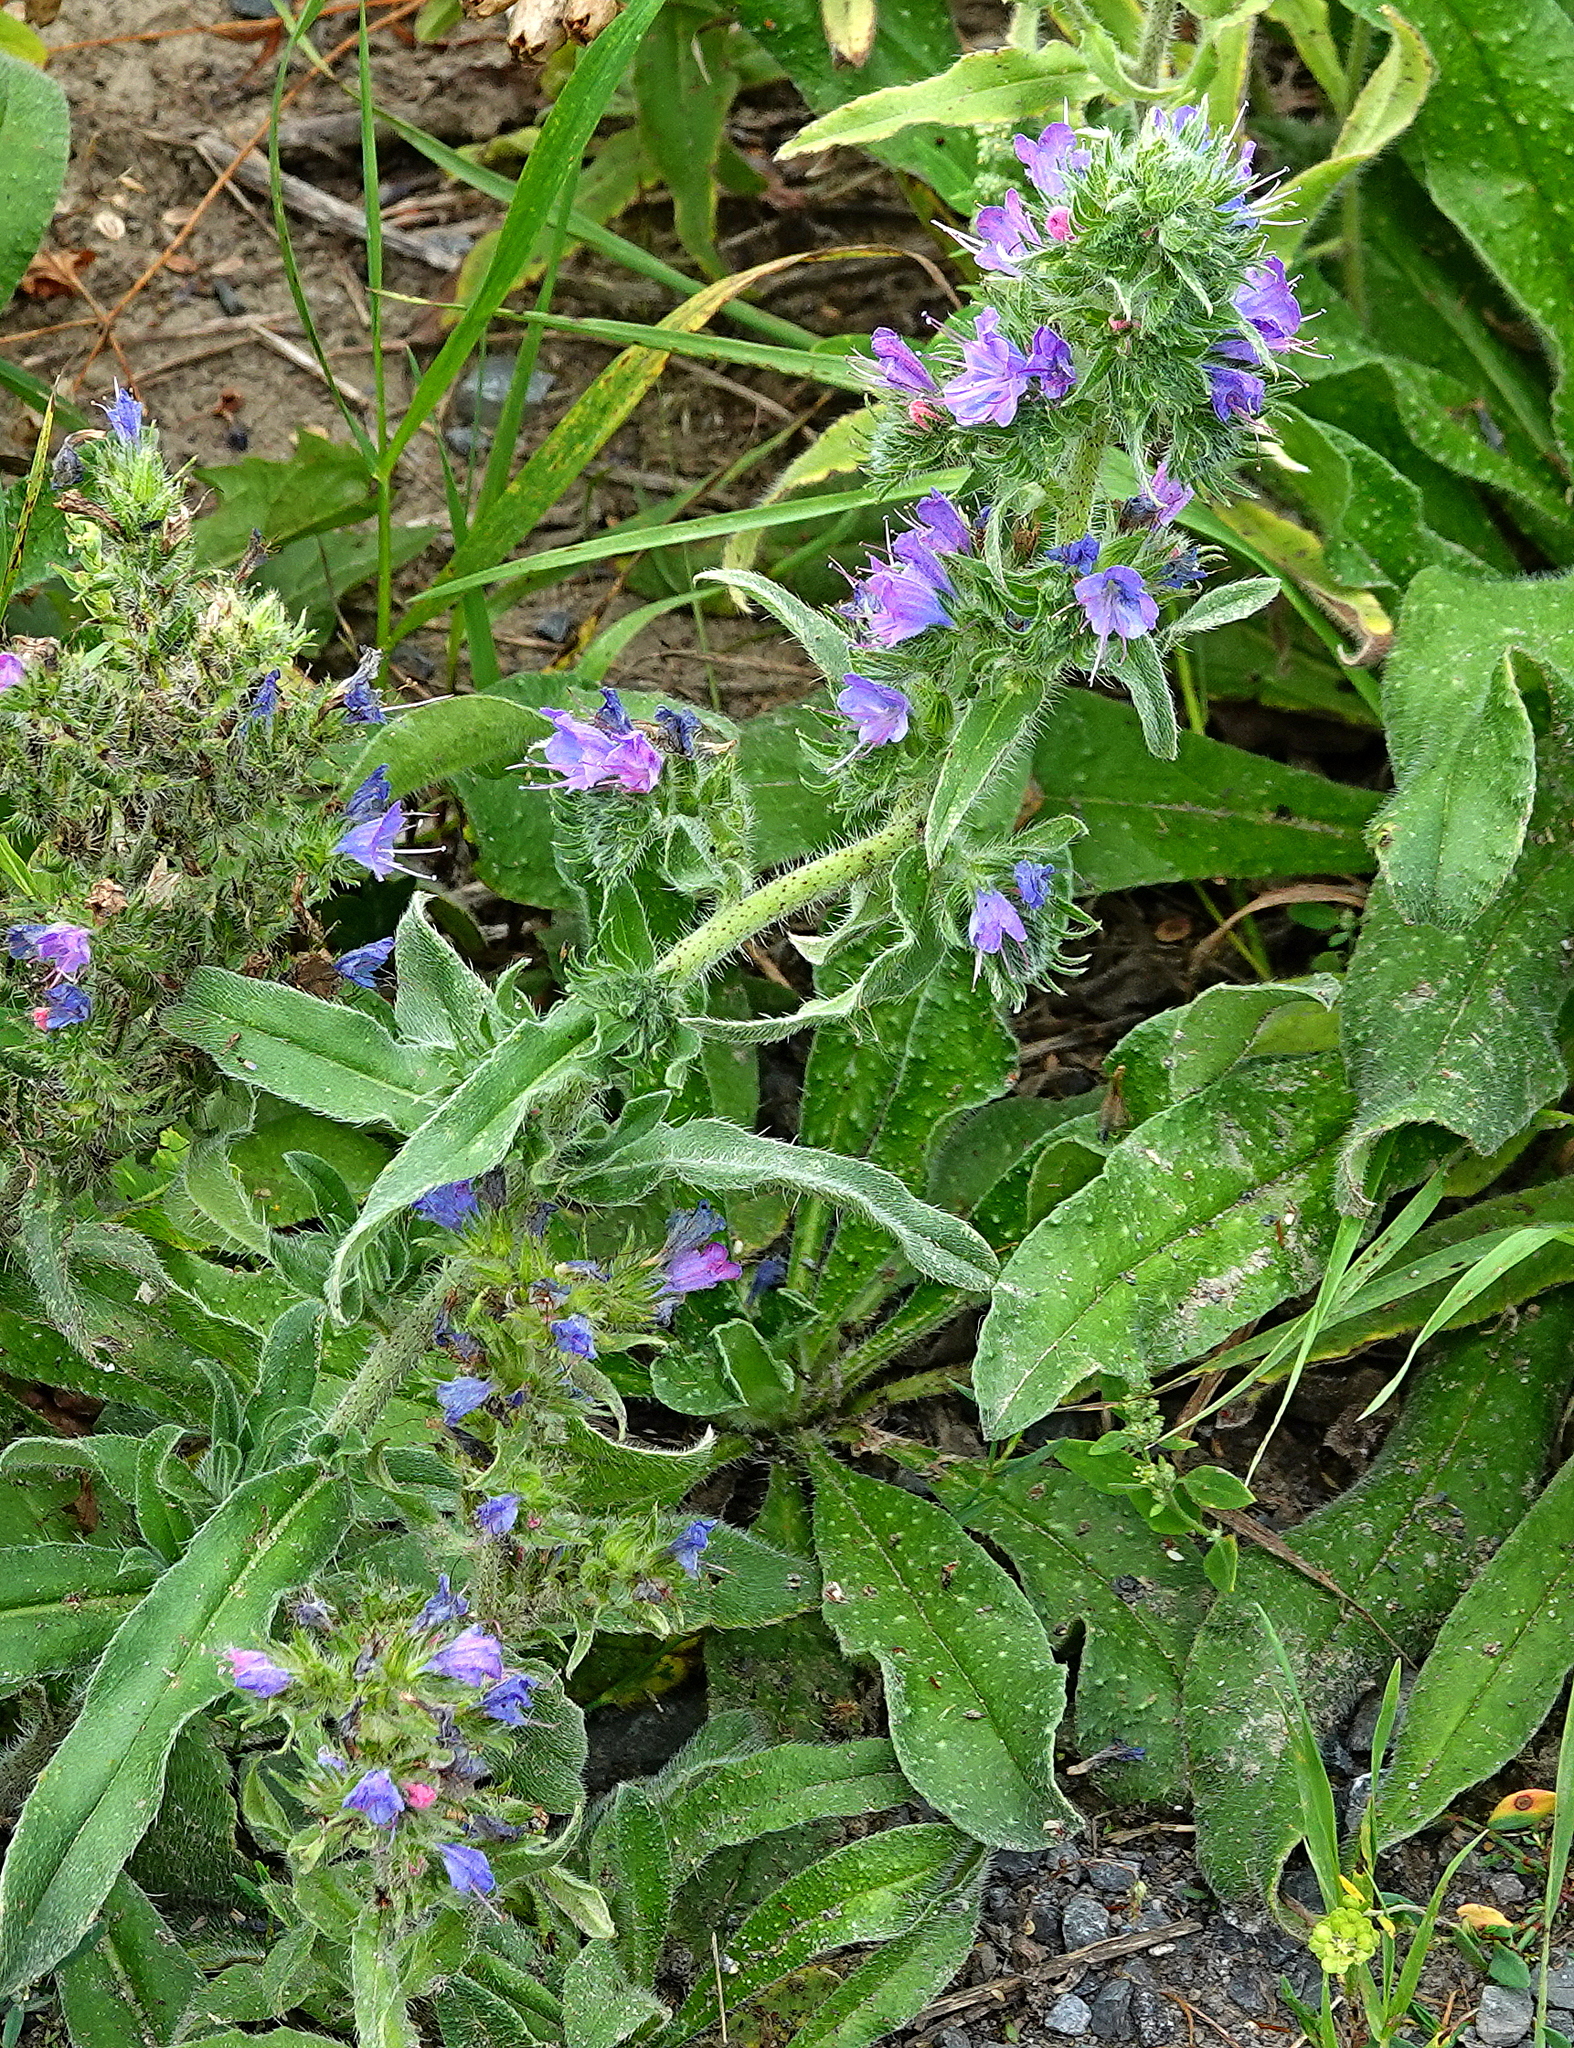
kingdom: Plantae
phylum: Tracheophyta
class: Magnoliopsida
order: Boraginales
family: Boraginaceae
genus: Echium
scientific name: Echium vulgare
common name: Common viper's bugloss
